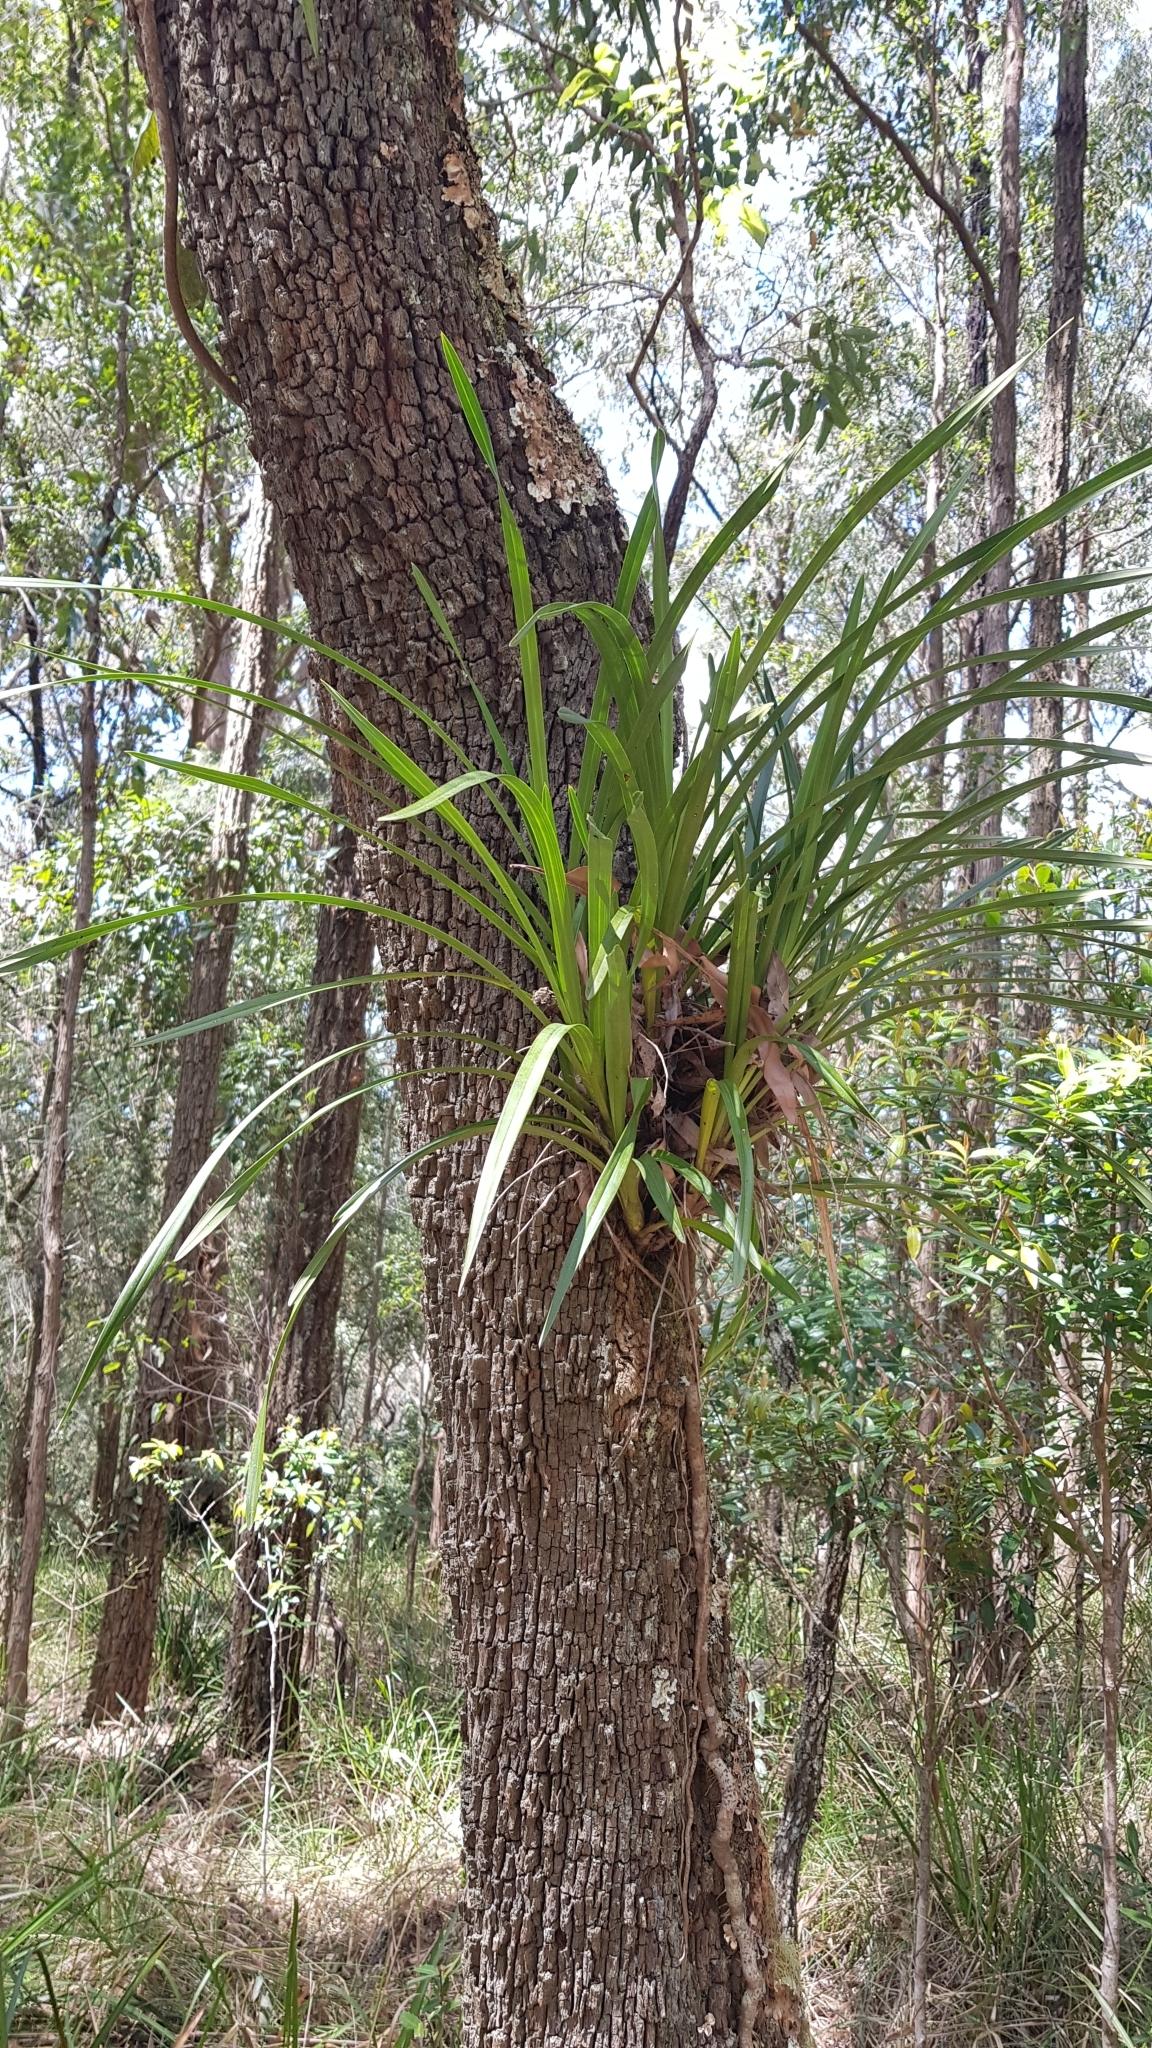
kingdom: Plantae
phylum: Tracheophyta
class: Liliopsida
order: Asparagales
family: Orchidaceae
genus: Cymbidium
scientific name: Cymbidium suave
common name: Snake orchid
